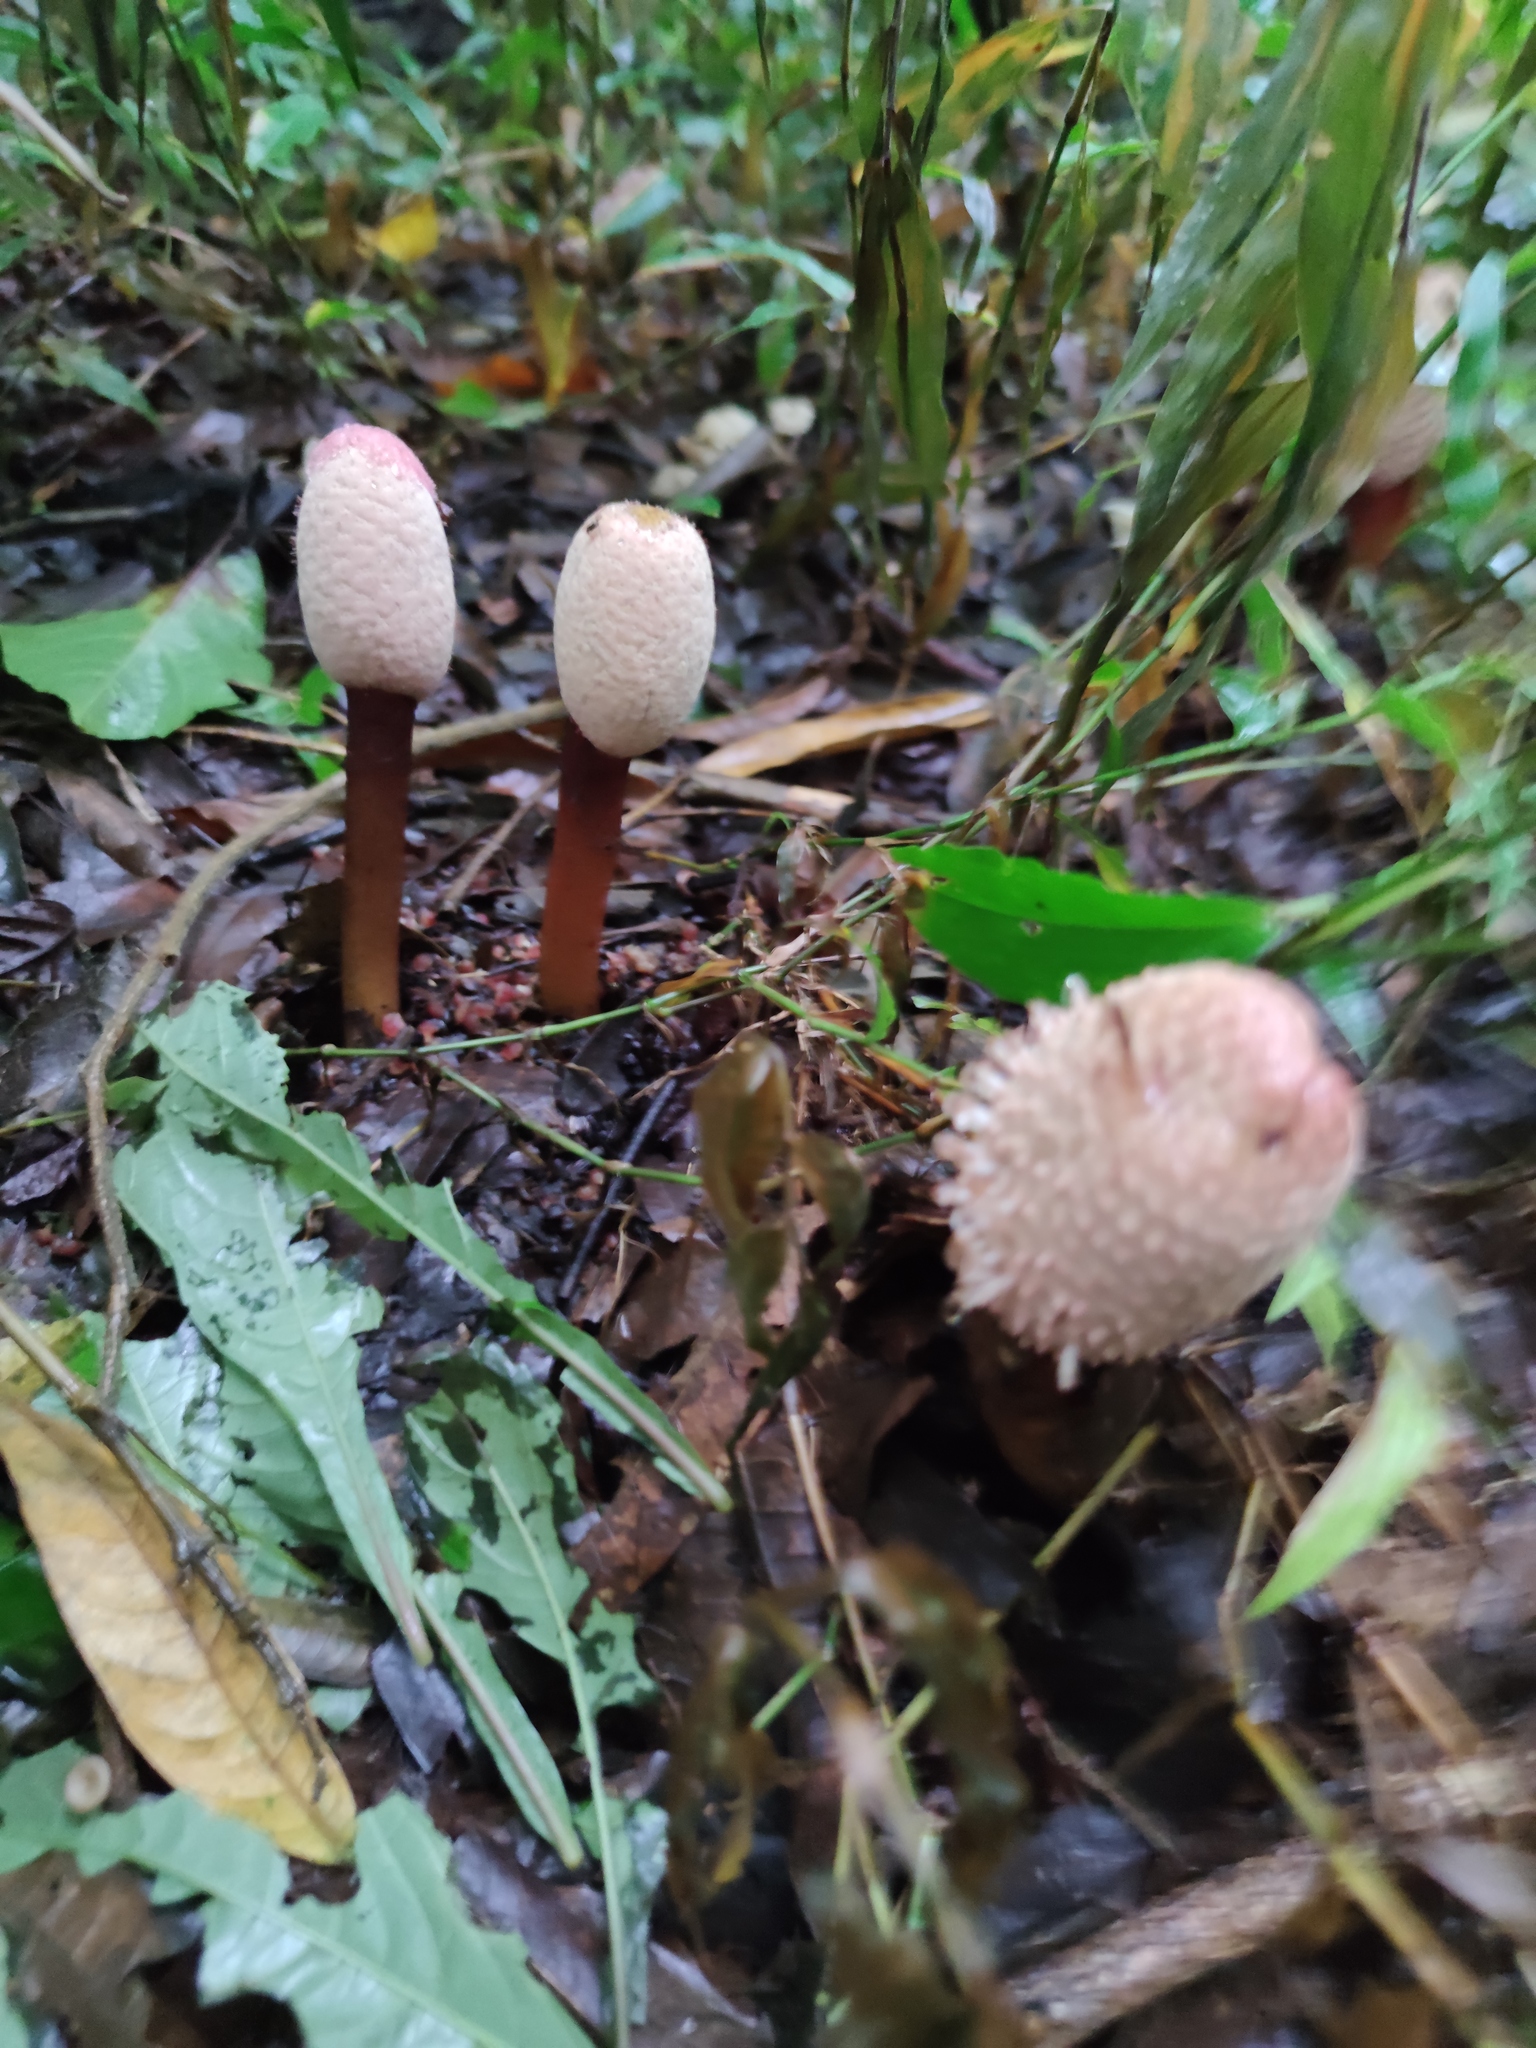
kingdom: Plantae
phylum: Tracheophyta
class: Magnoliopsida
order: Santalales
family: Balanophoraceae
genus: Helosis
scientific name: Helosis cayennensis
